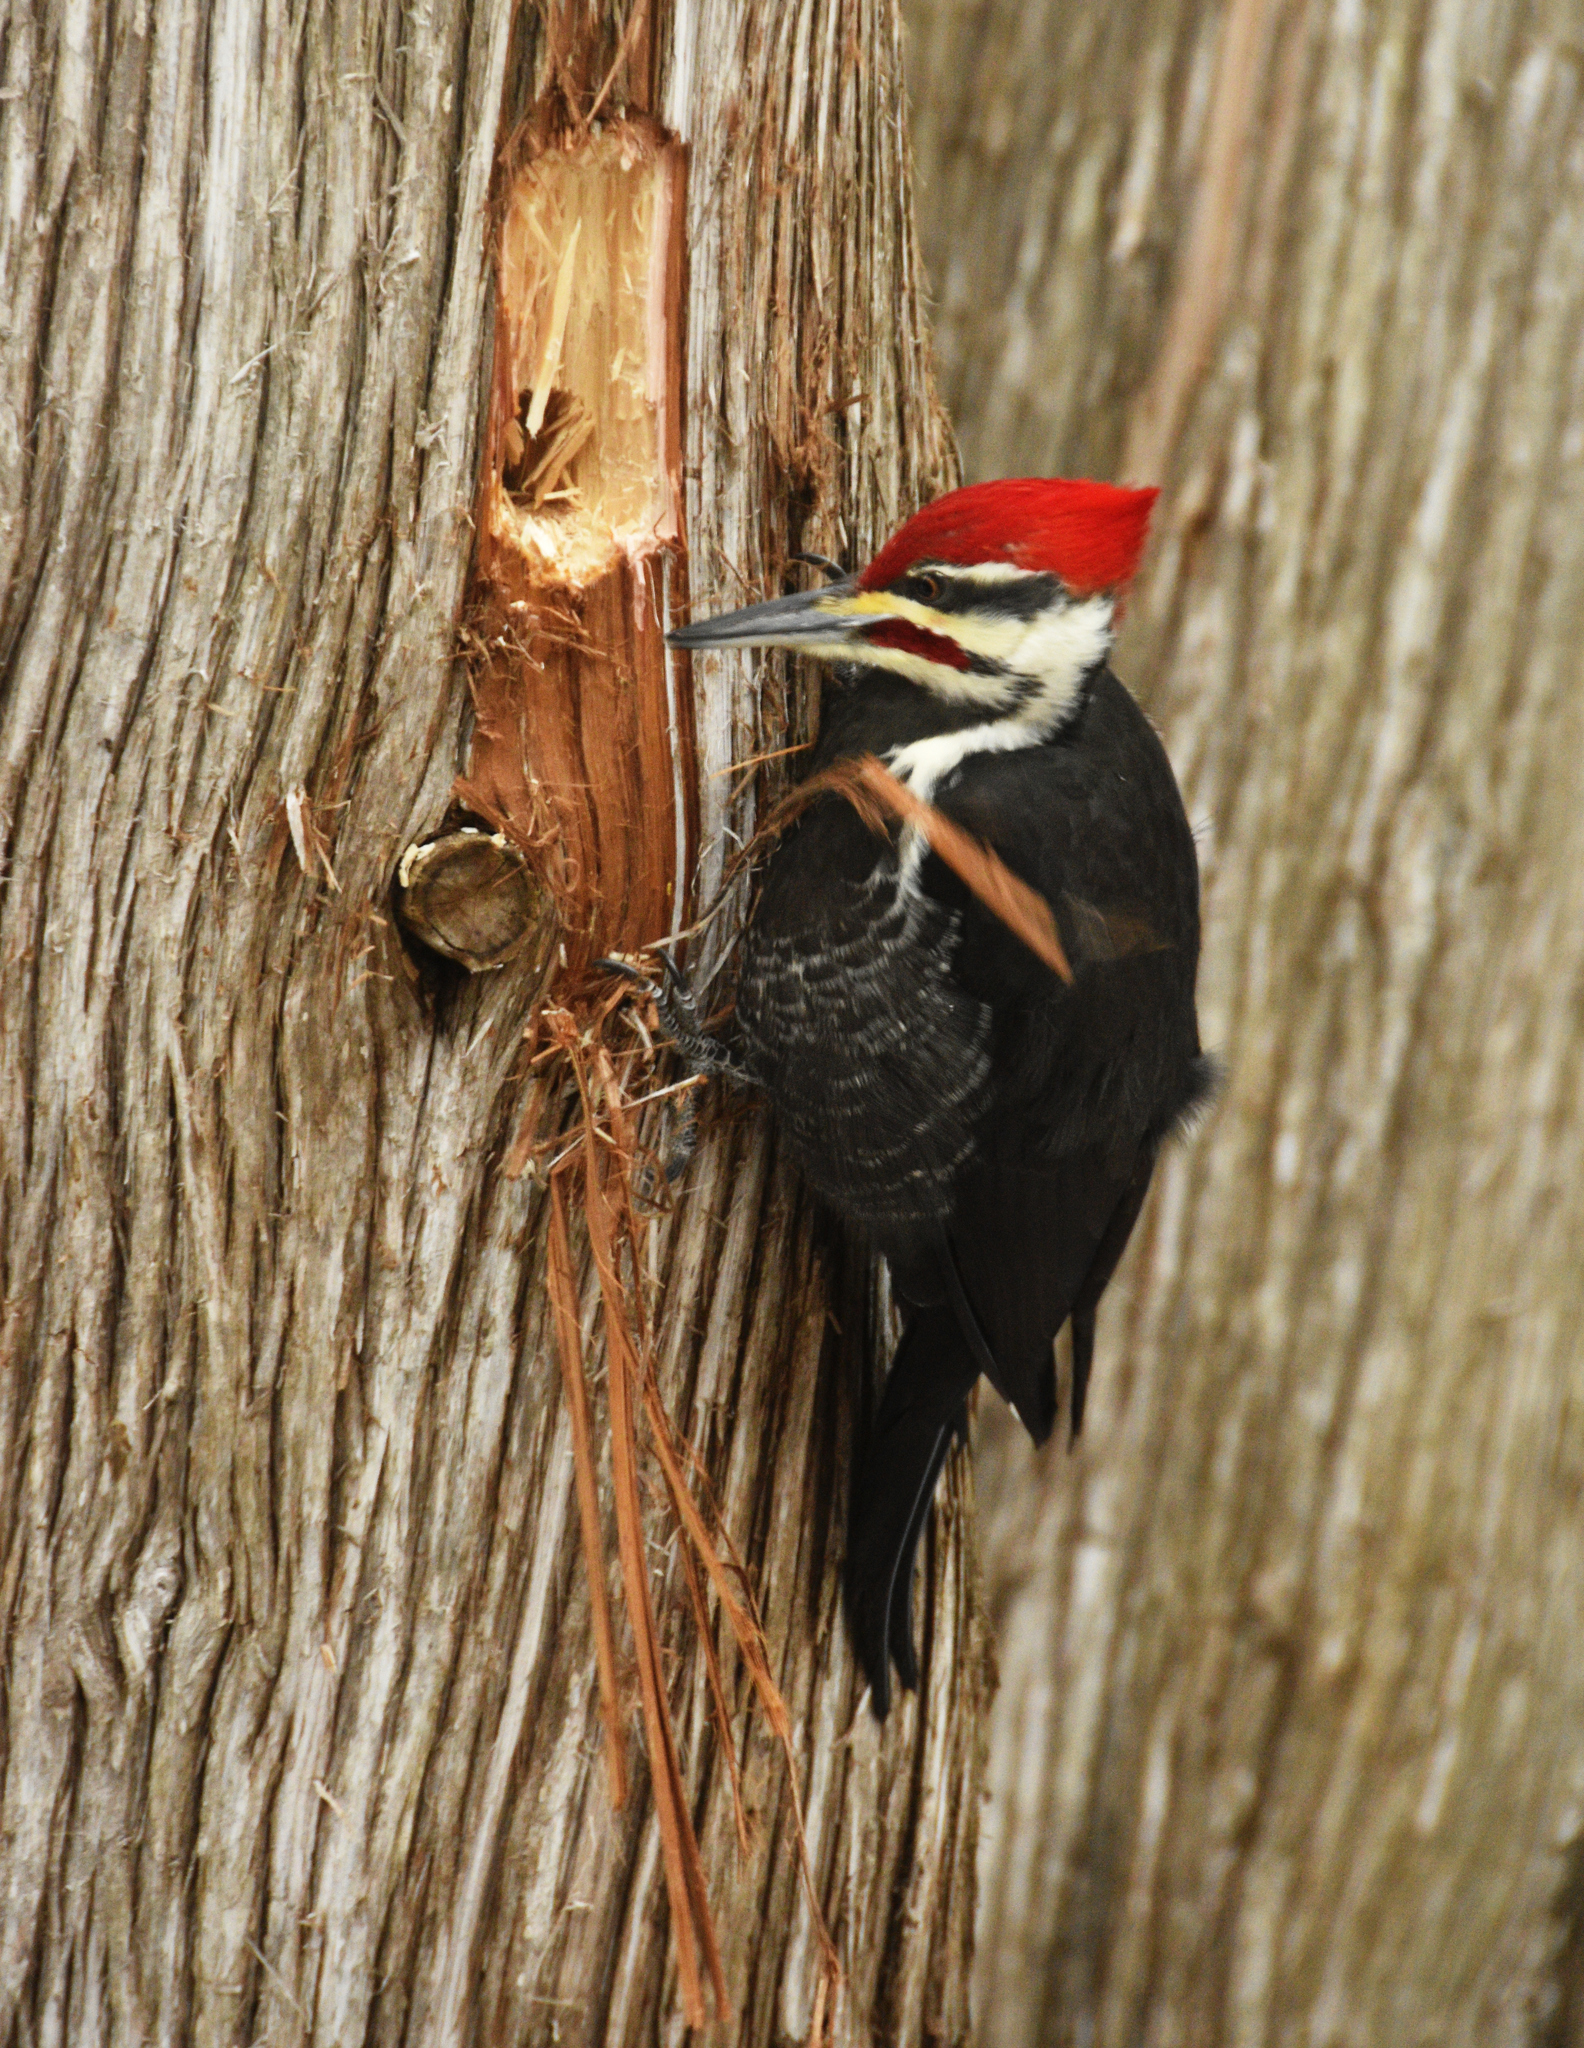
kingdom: Animalia
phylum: Chordata
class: Aves
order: Piciformes
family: Picidae
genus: Dryocopus
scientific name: Dryocopus pileatus
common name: Pileated woodpecker
